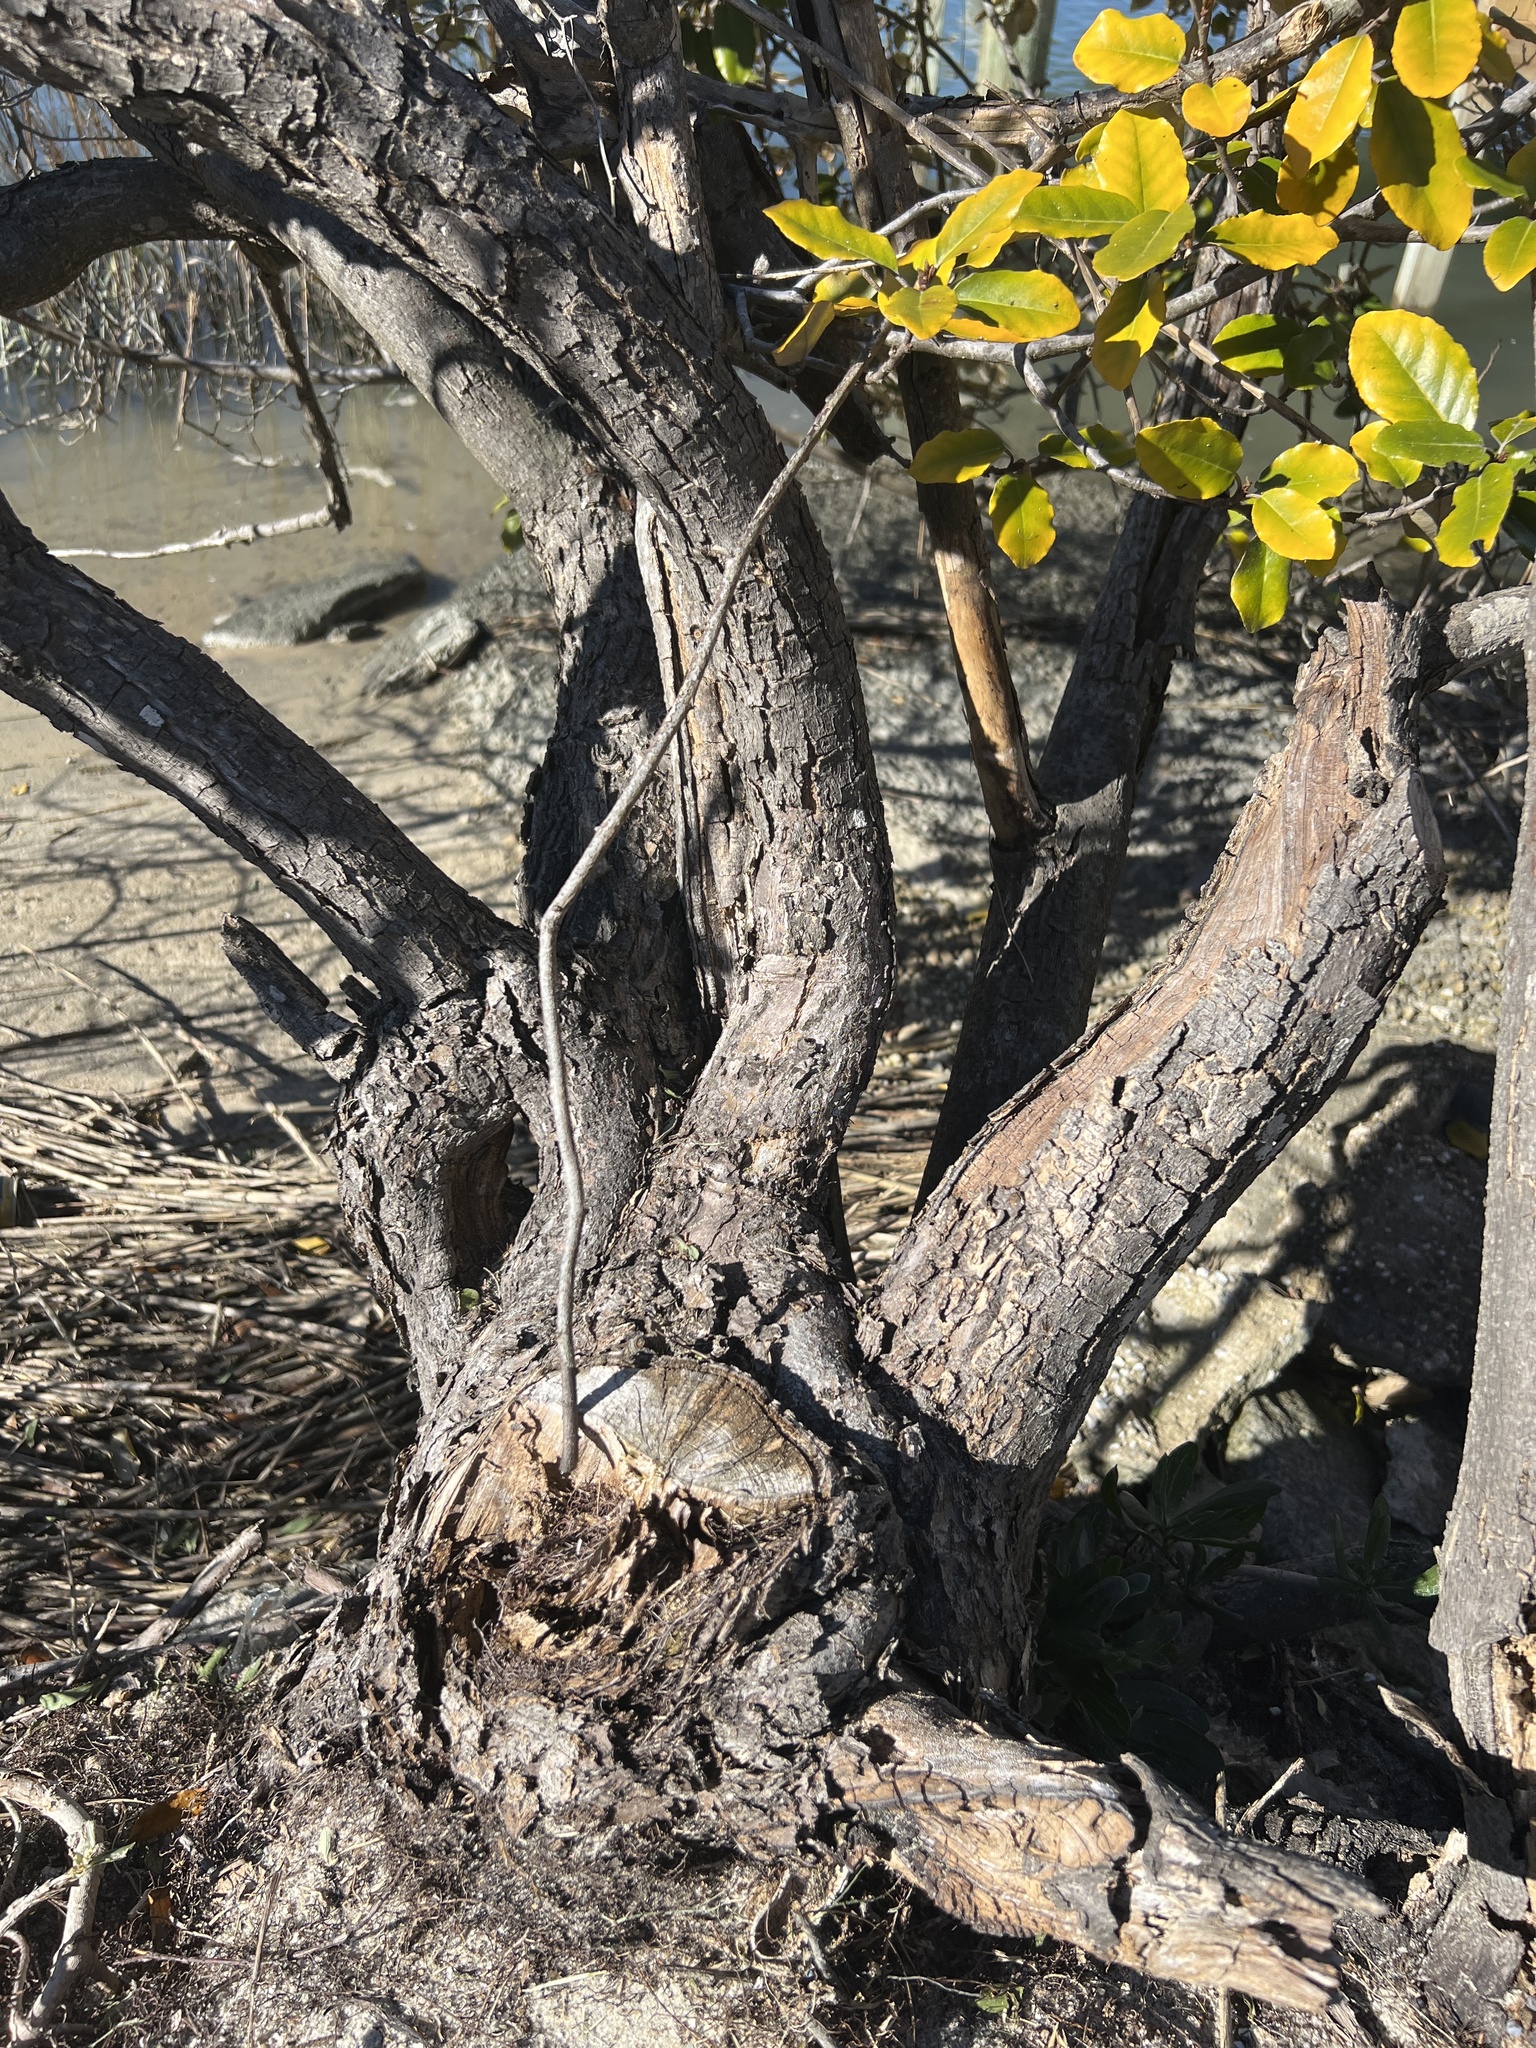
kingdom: Plantae
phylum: Tracheophyta
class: Magnoliopsida
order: Rosales
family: Elaeagnaceae
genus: Elaeagnus
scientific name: Elaeagnus pungens
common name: Spiny oleaster
